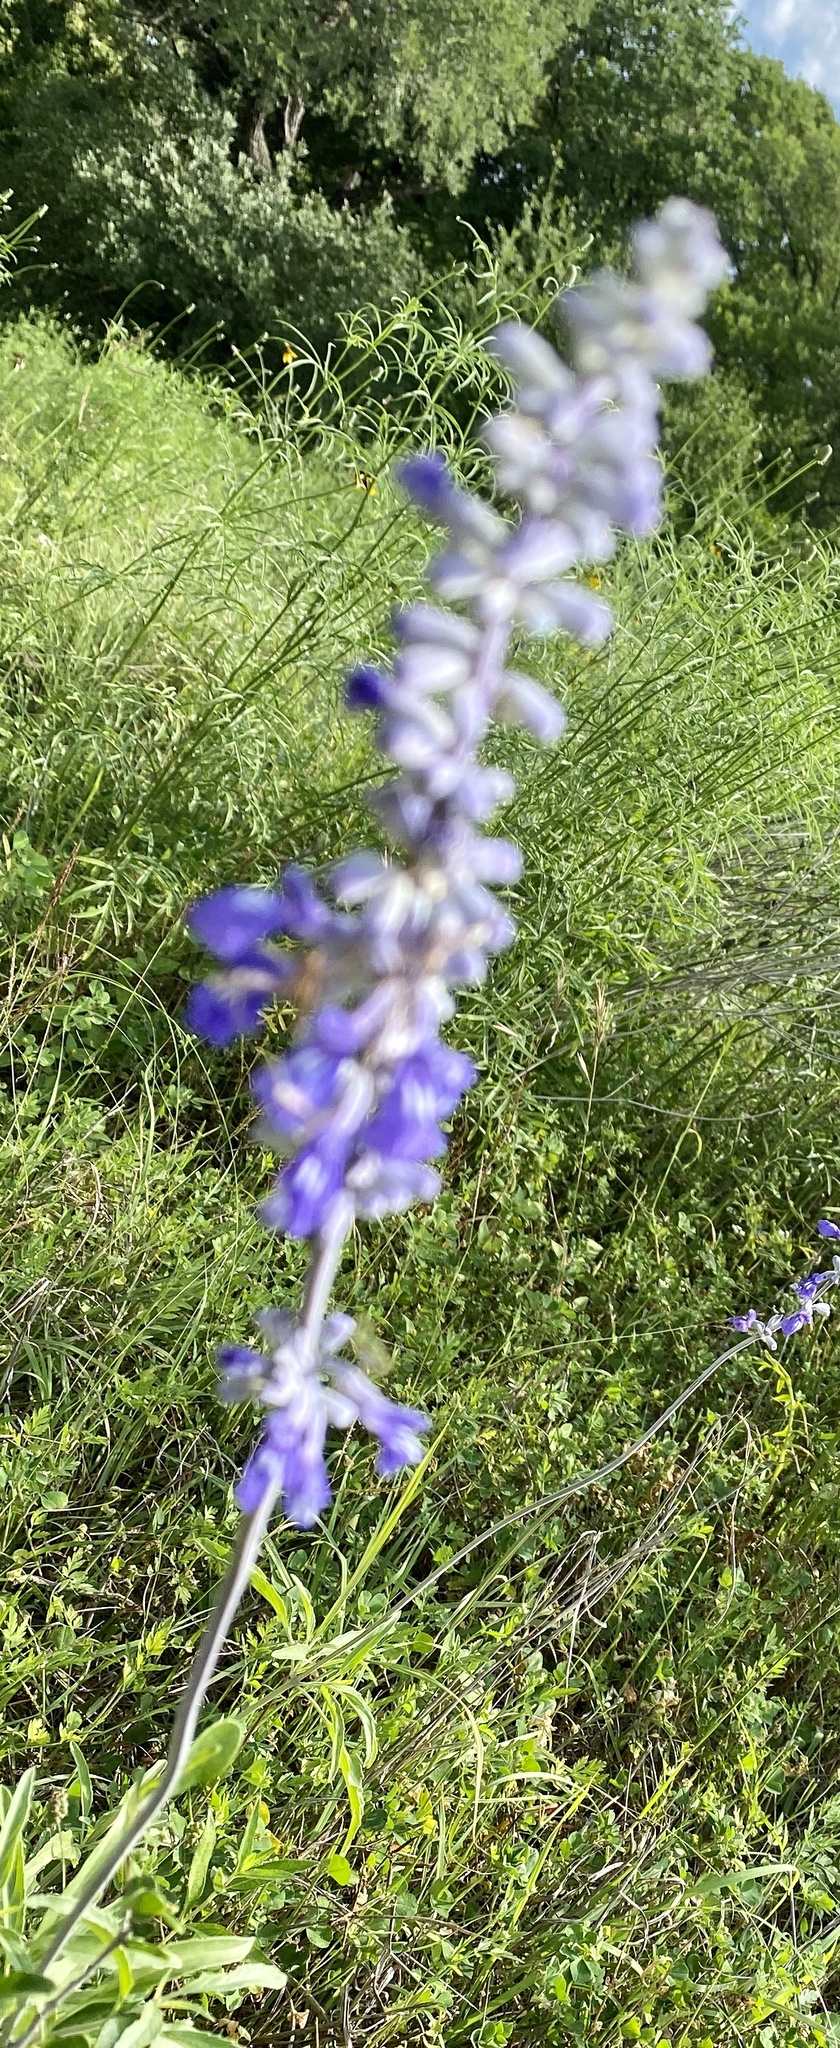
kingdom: Plantae
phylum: Tracheophyta
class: Magnoliopsida
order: Lamiales
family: Lamiaceae
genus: Salvia
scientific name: Salvia farinacea
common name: Mealy sage
